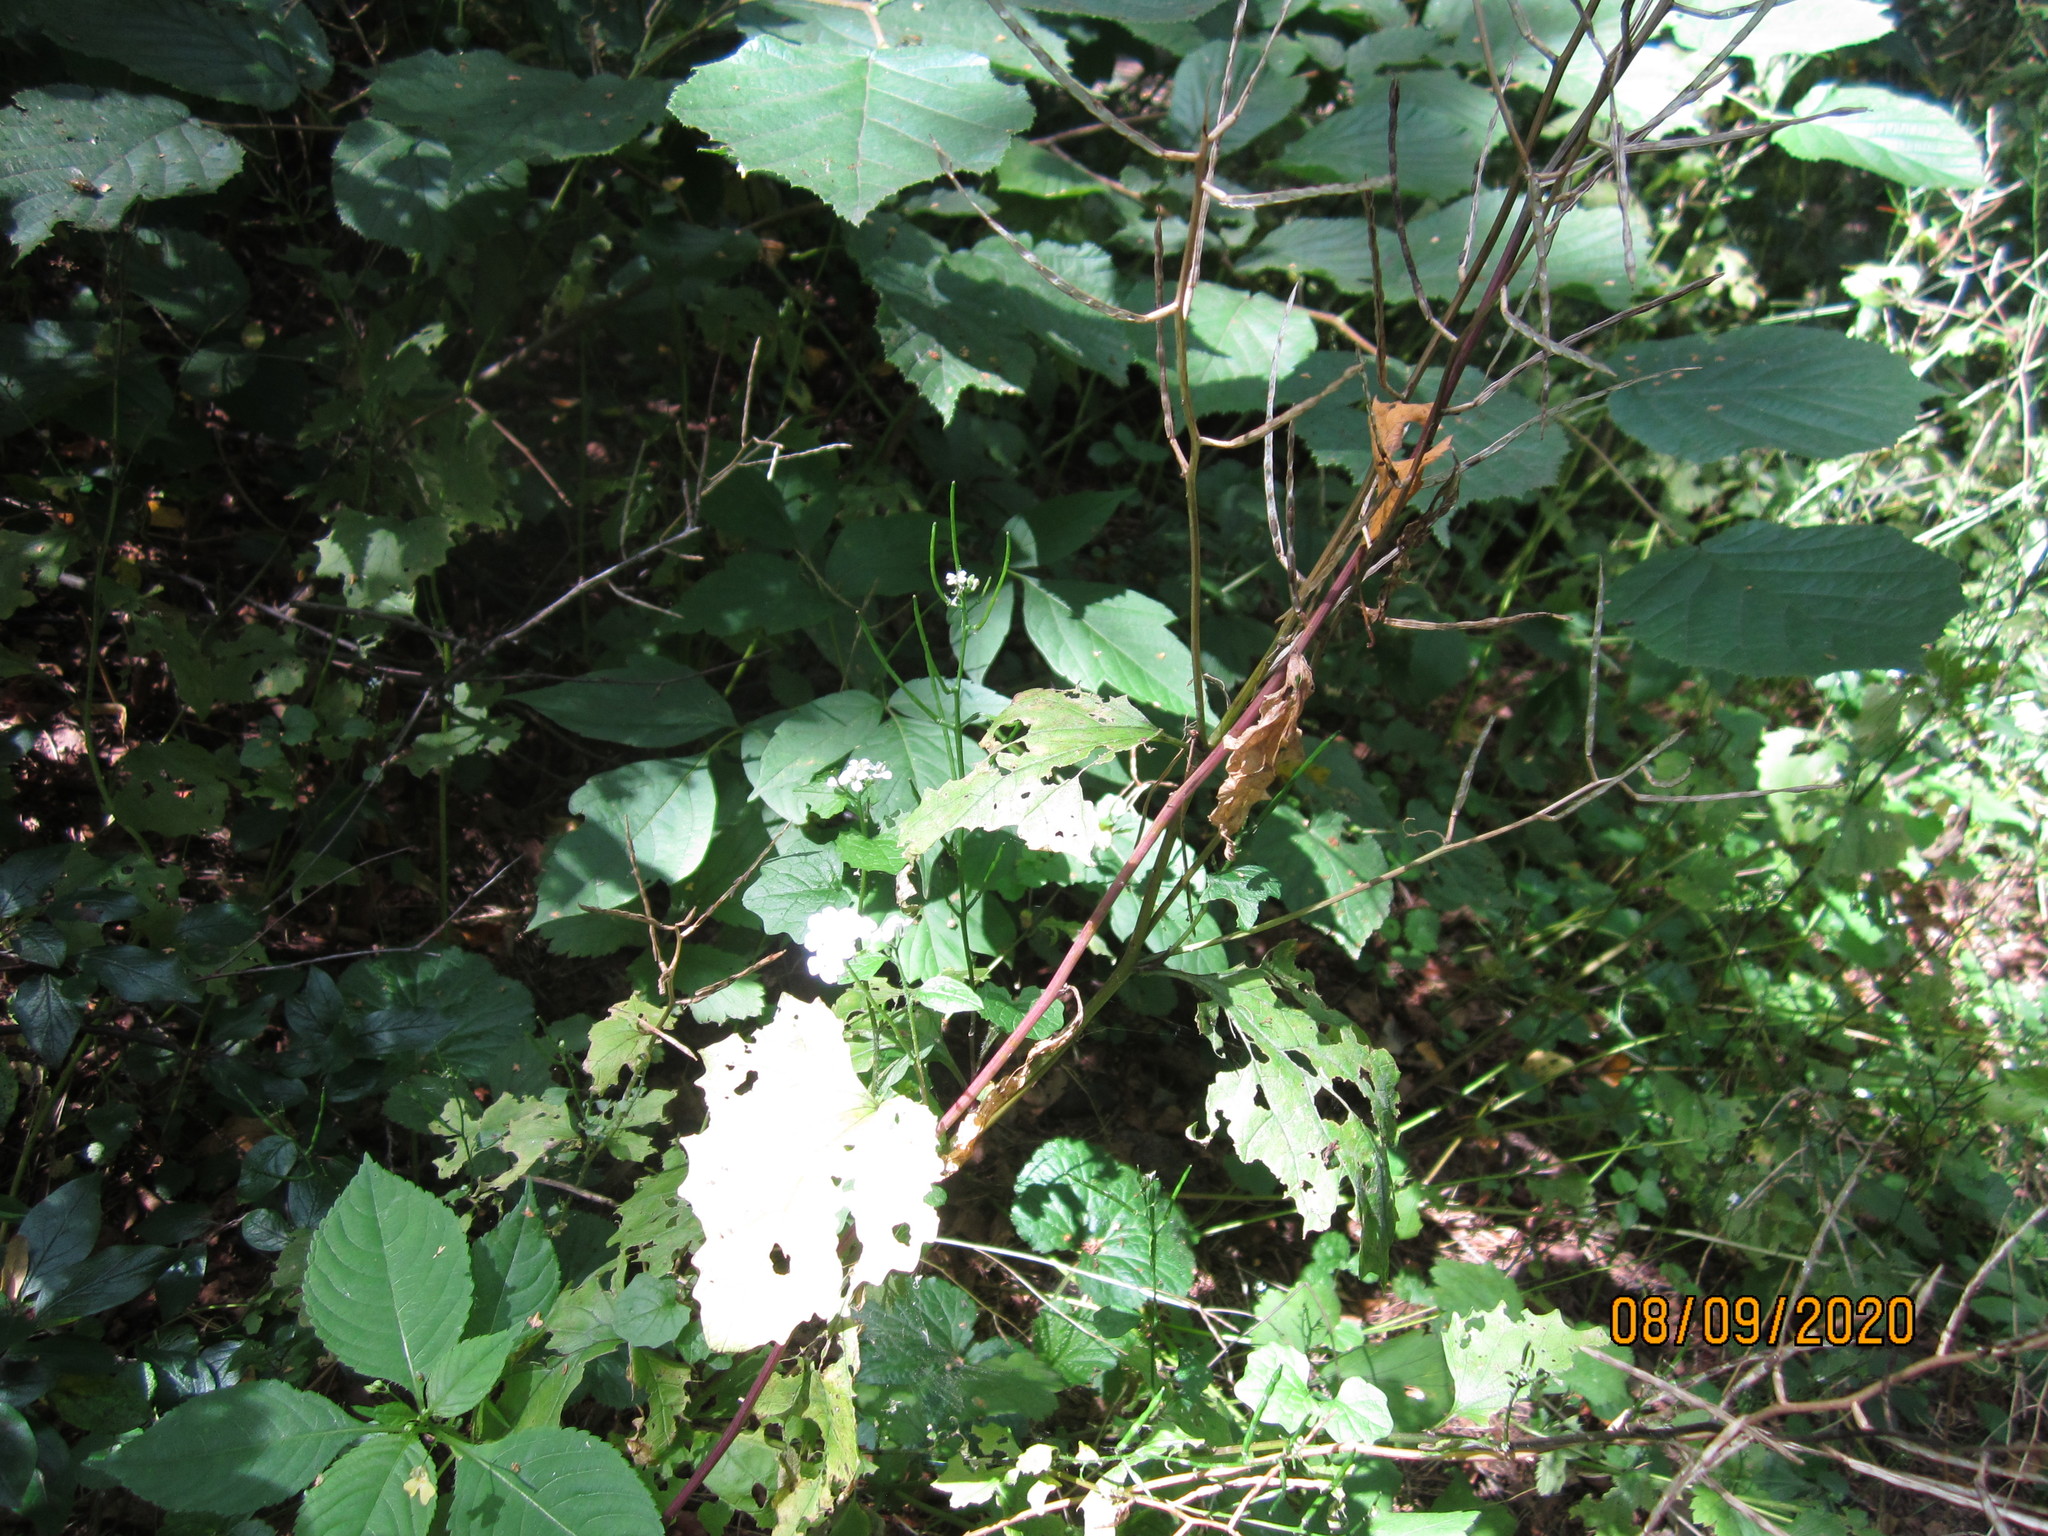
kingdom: Plantae
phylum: Tracheophyta
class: Magnoliopsida
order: Brassicales
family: Brassicaceae
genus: Alliaria
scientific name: Alliaria petiolata
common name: Garlic mustard
